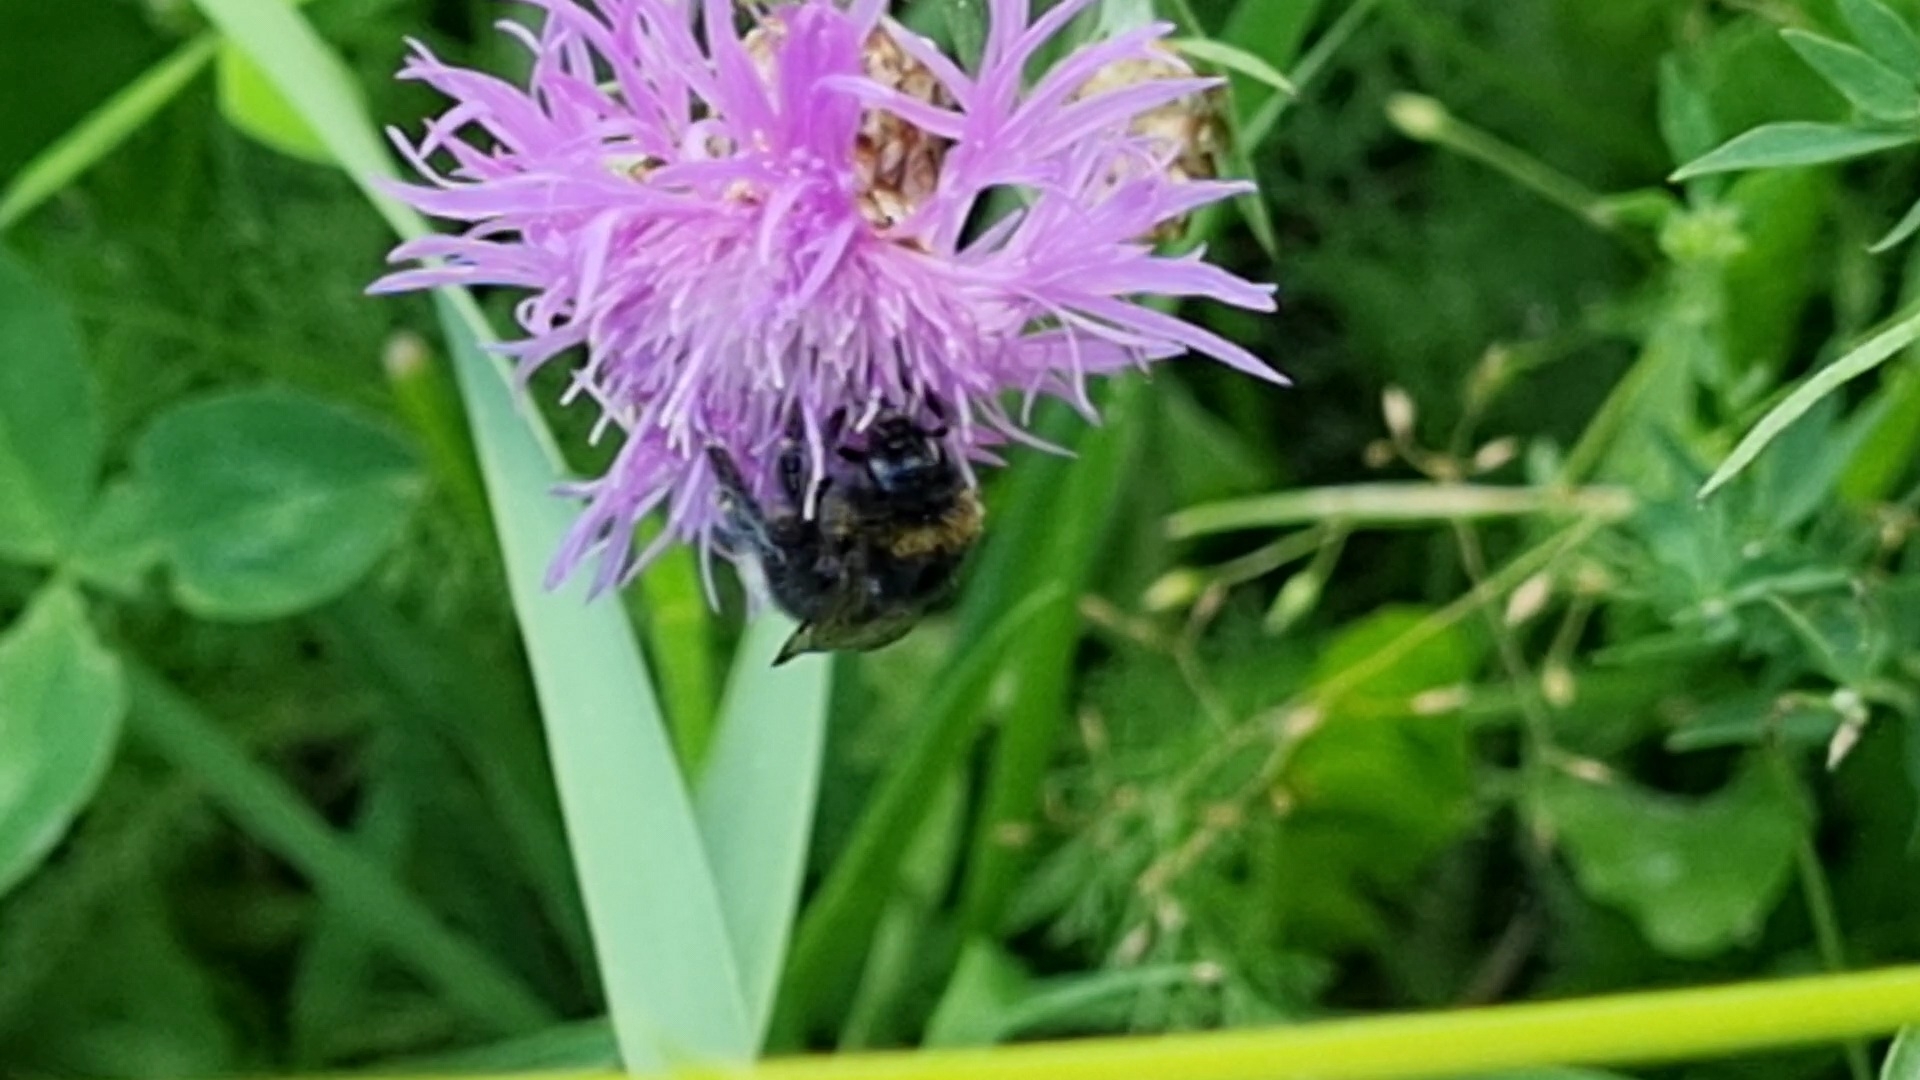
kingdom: Animalia
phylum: Arthropoda
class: Insecta
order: Hymenoptera
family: Apidae
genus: Bombus
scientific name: Bombus soroeensis
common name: Broken-belted humble-bee
